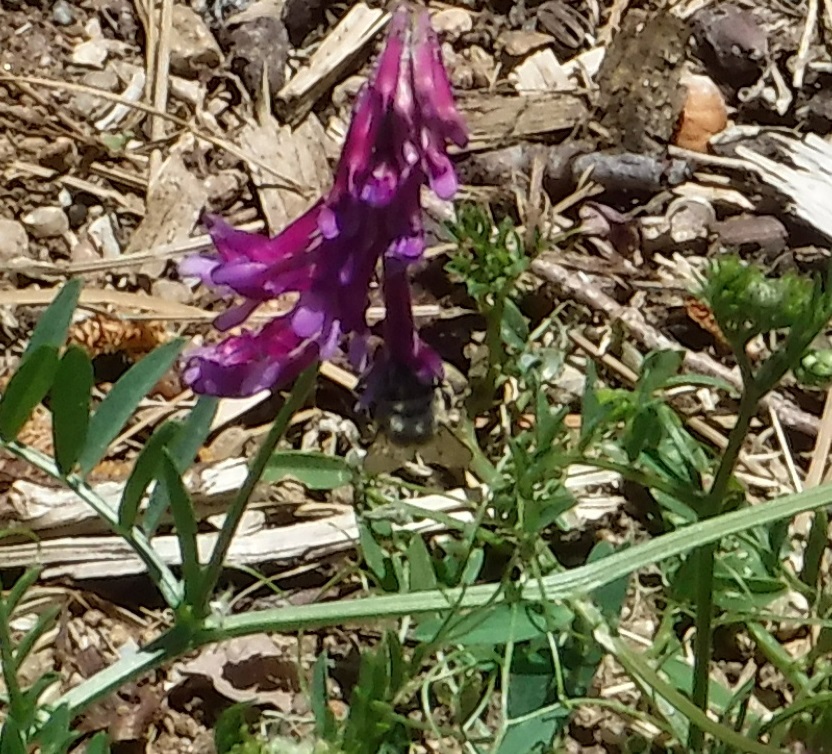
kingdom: Animalia
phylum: Arthropoda
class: Insecta
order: Hymenoptera
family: Apidae
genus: Anthophora
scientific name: Anthophora californica
